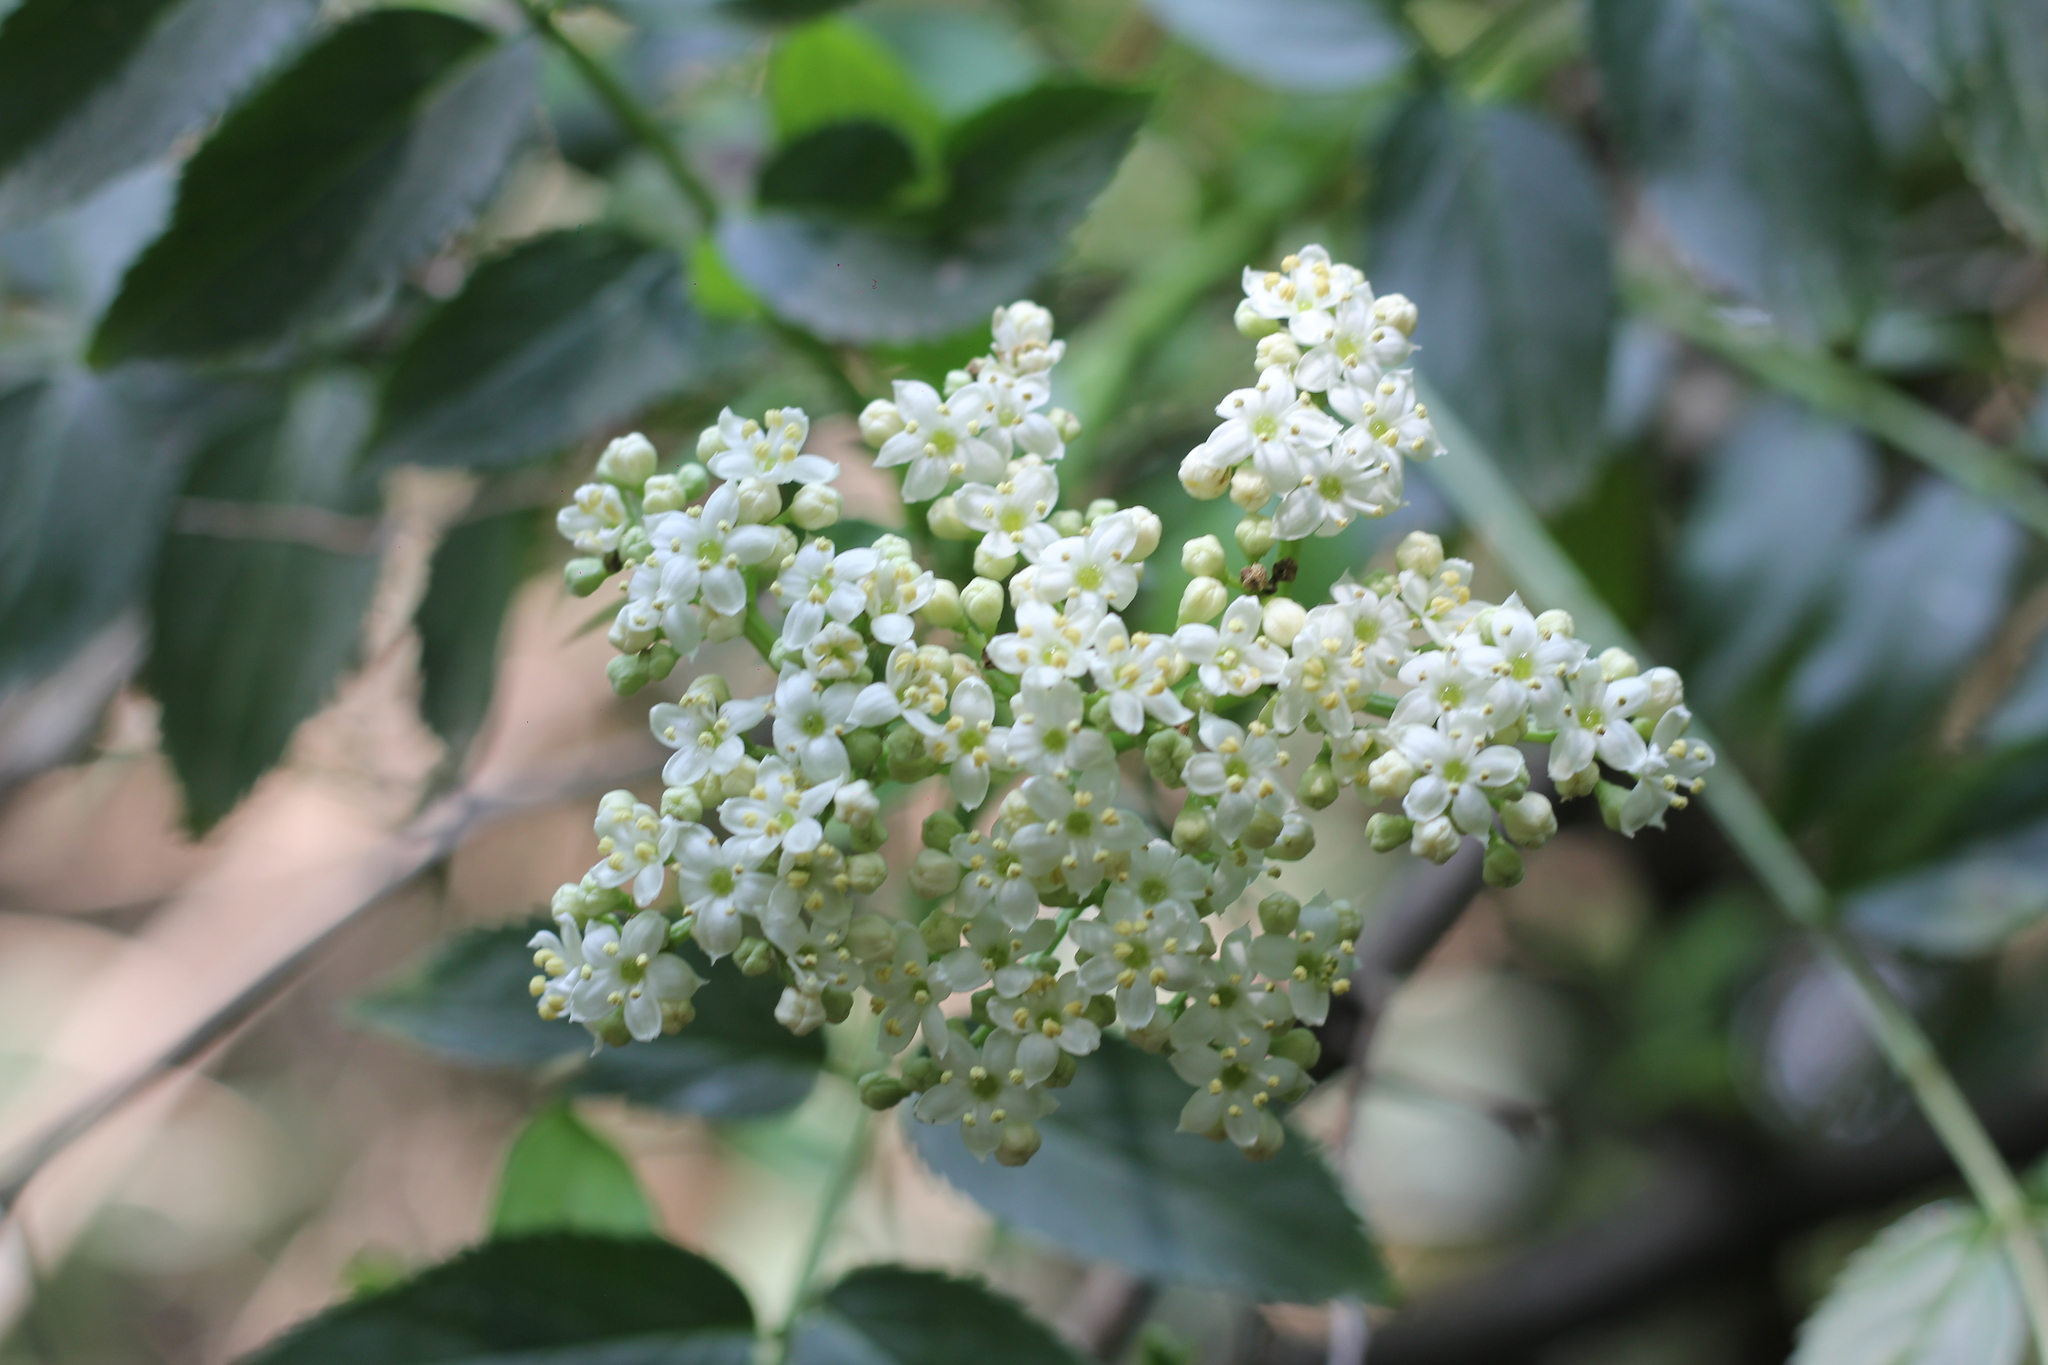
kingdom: Plantae
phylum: Tracheophyta
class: Magnoliopsida
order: Dipsacales
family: Viburnaceae
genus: Sambucus
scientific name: Sambucus australis
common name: Southern elder
